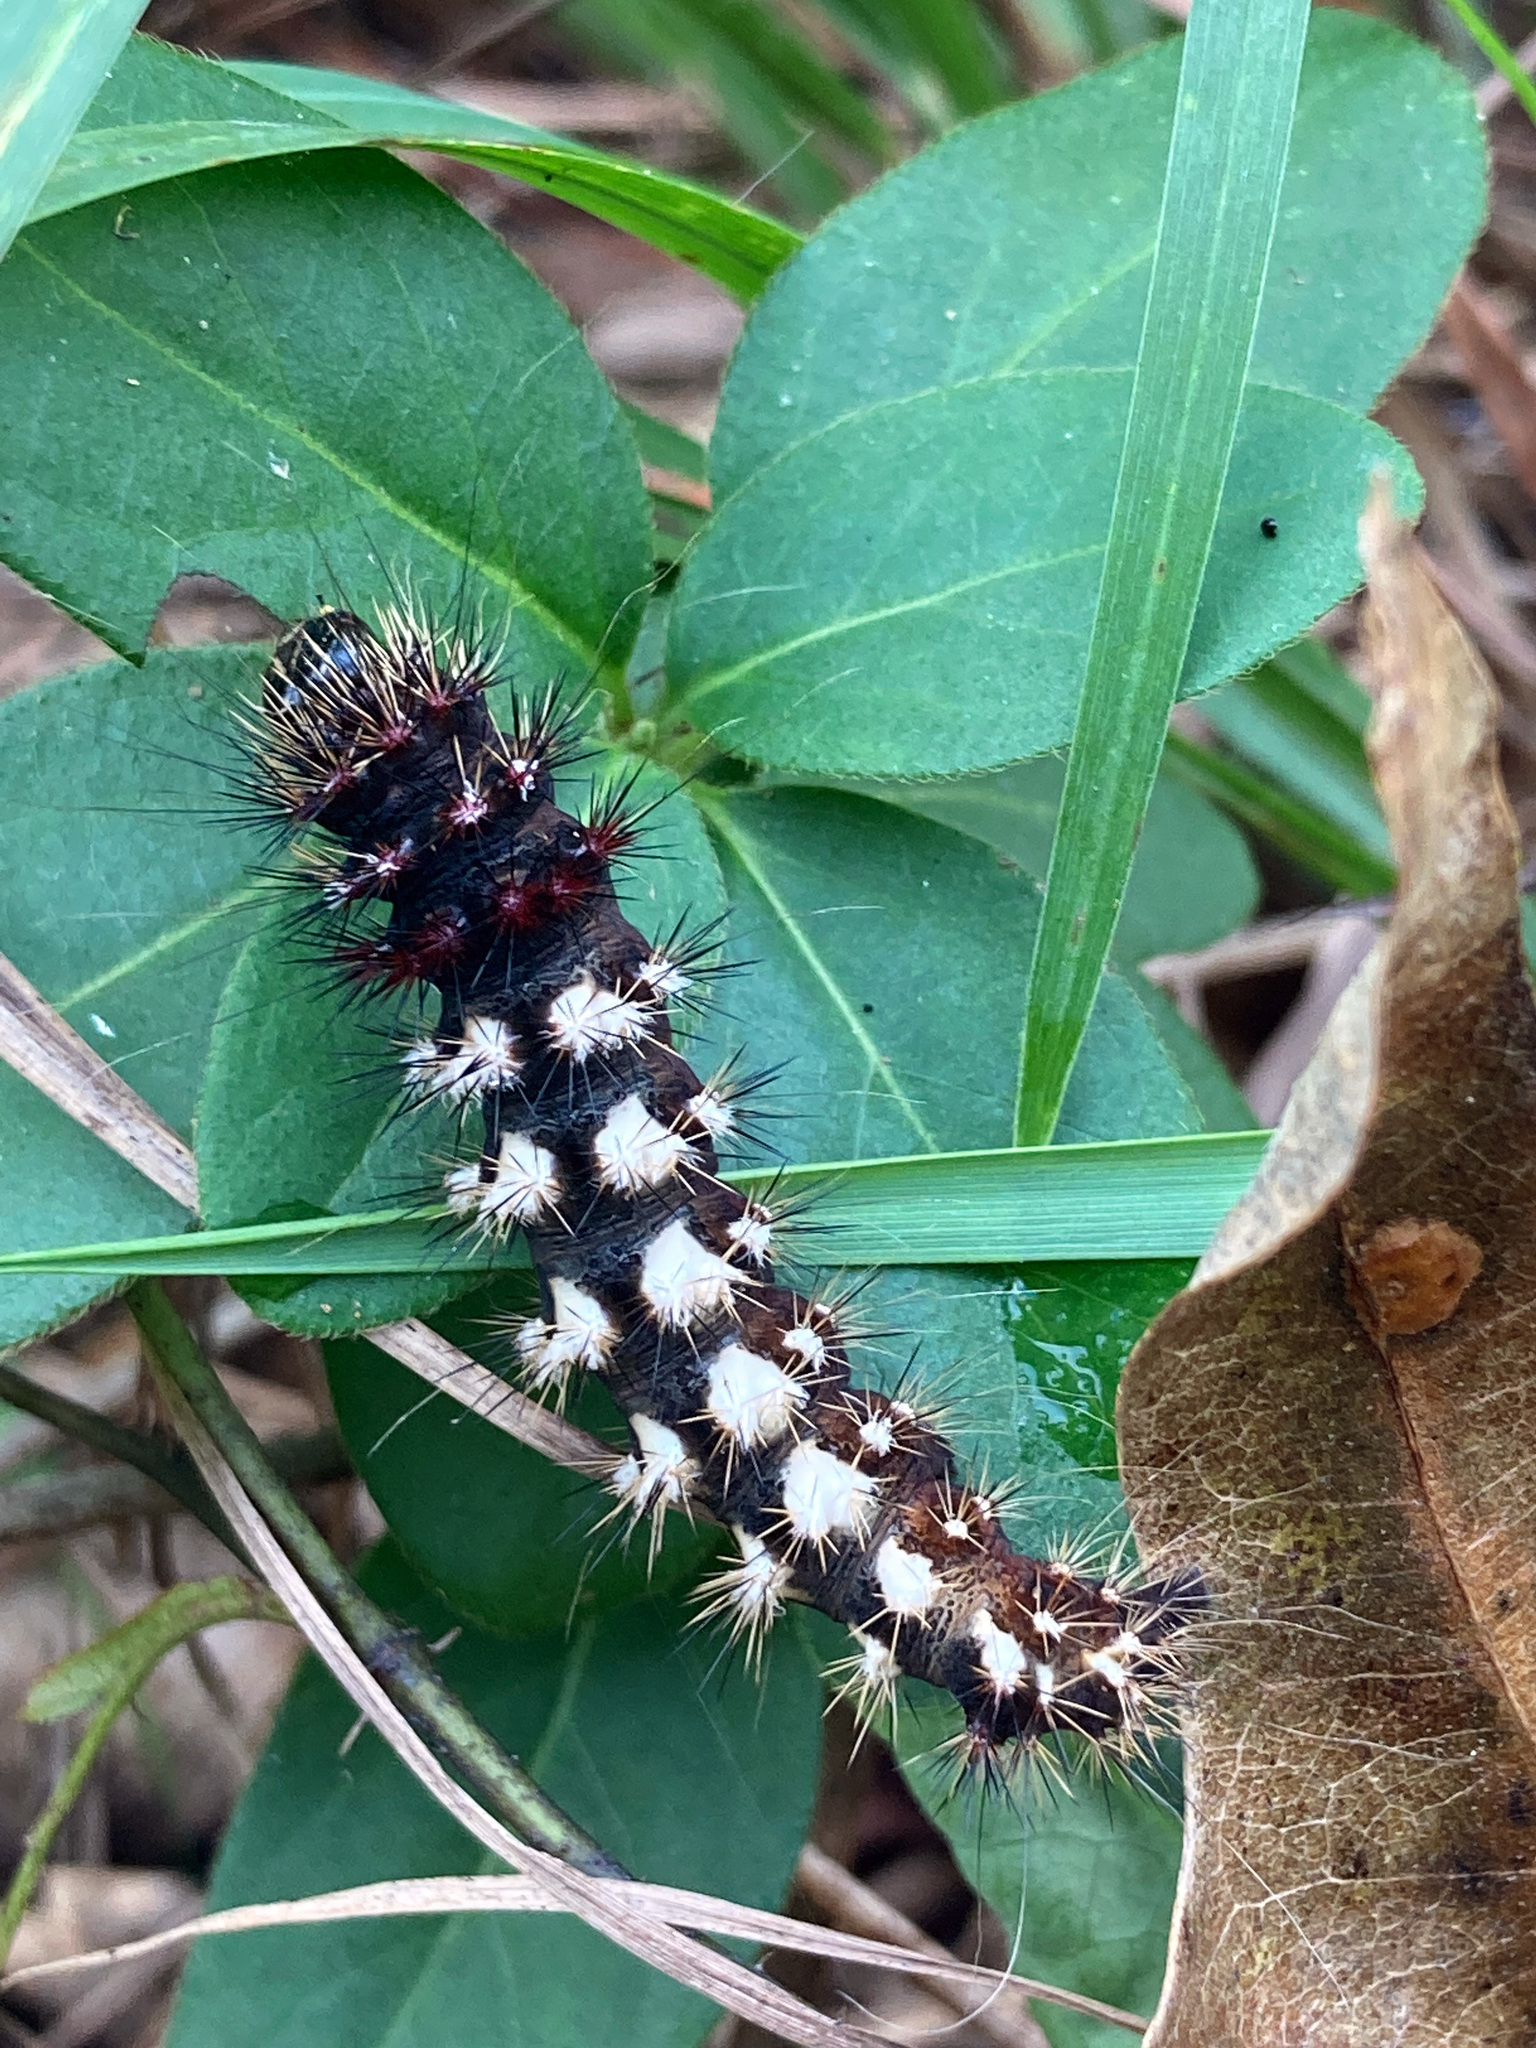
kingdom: Animalia
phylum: Arthropoda
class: Insecta
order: Lepidoptera
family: Noctuidae
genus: Acronicta
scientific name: Acronicta longa
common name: Long-winged dagger
